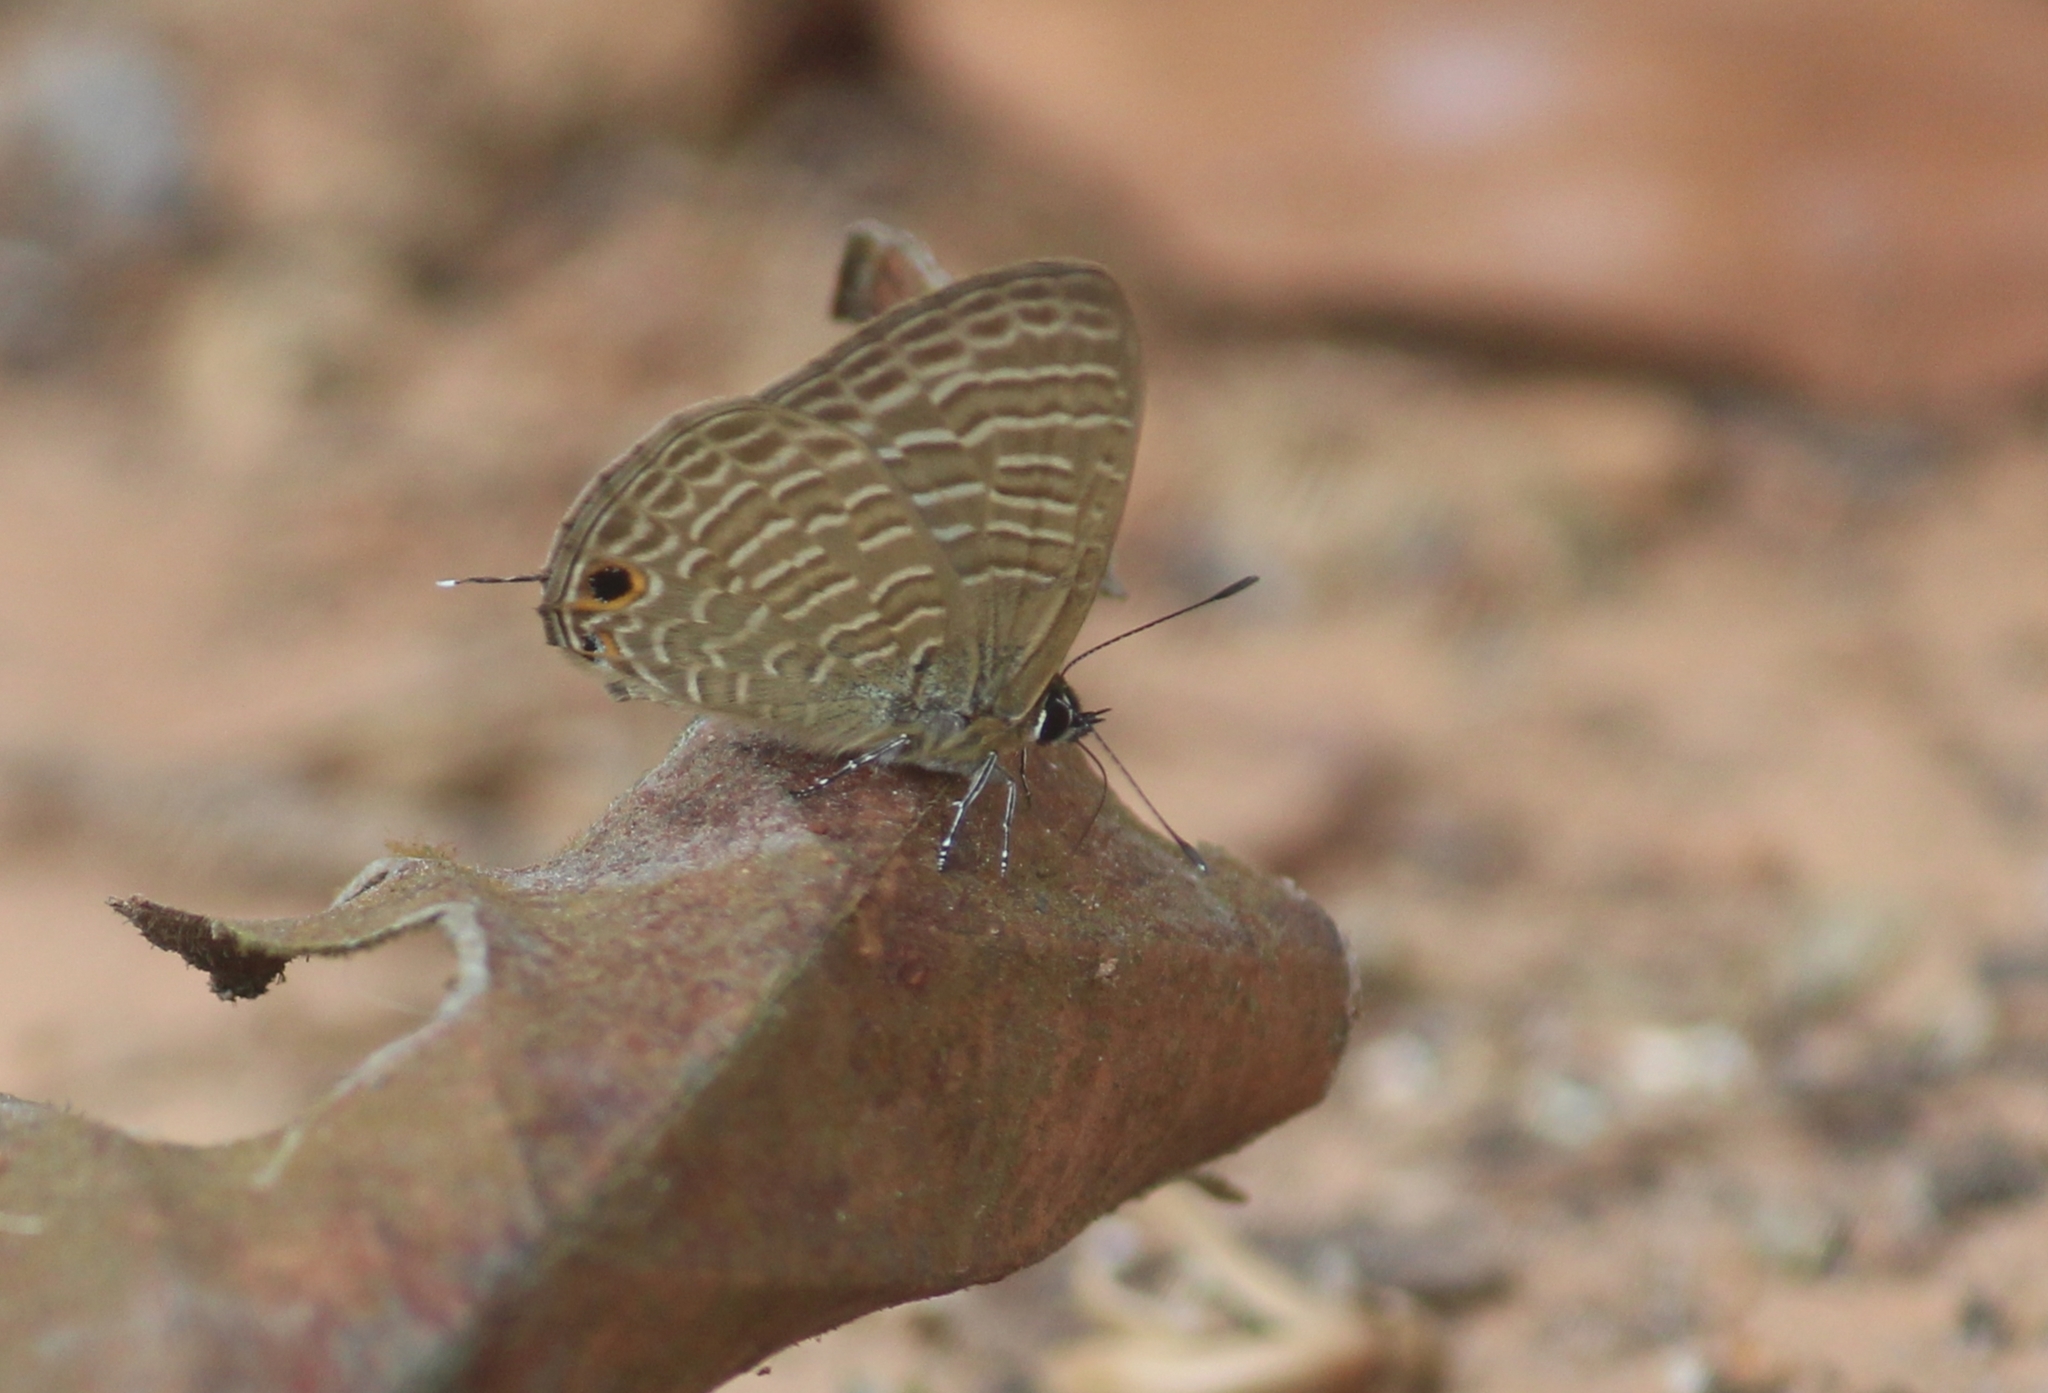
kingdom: Animalia
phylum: Arthropoda
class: Insecta
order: Lepidoptera
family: Lycaenidae
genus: Nacaduba
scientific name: Nacaduba kurava
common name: Transparent 6-line blue
